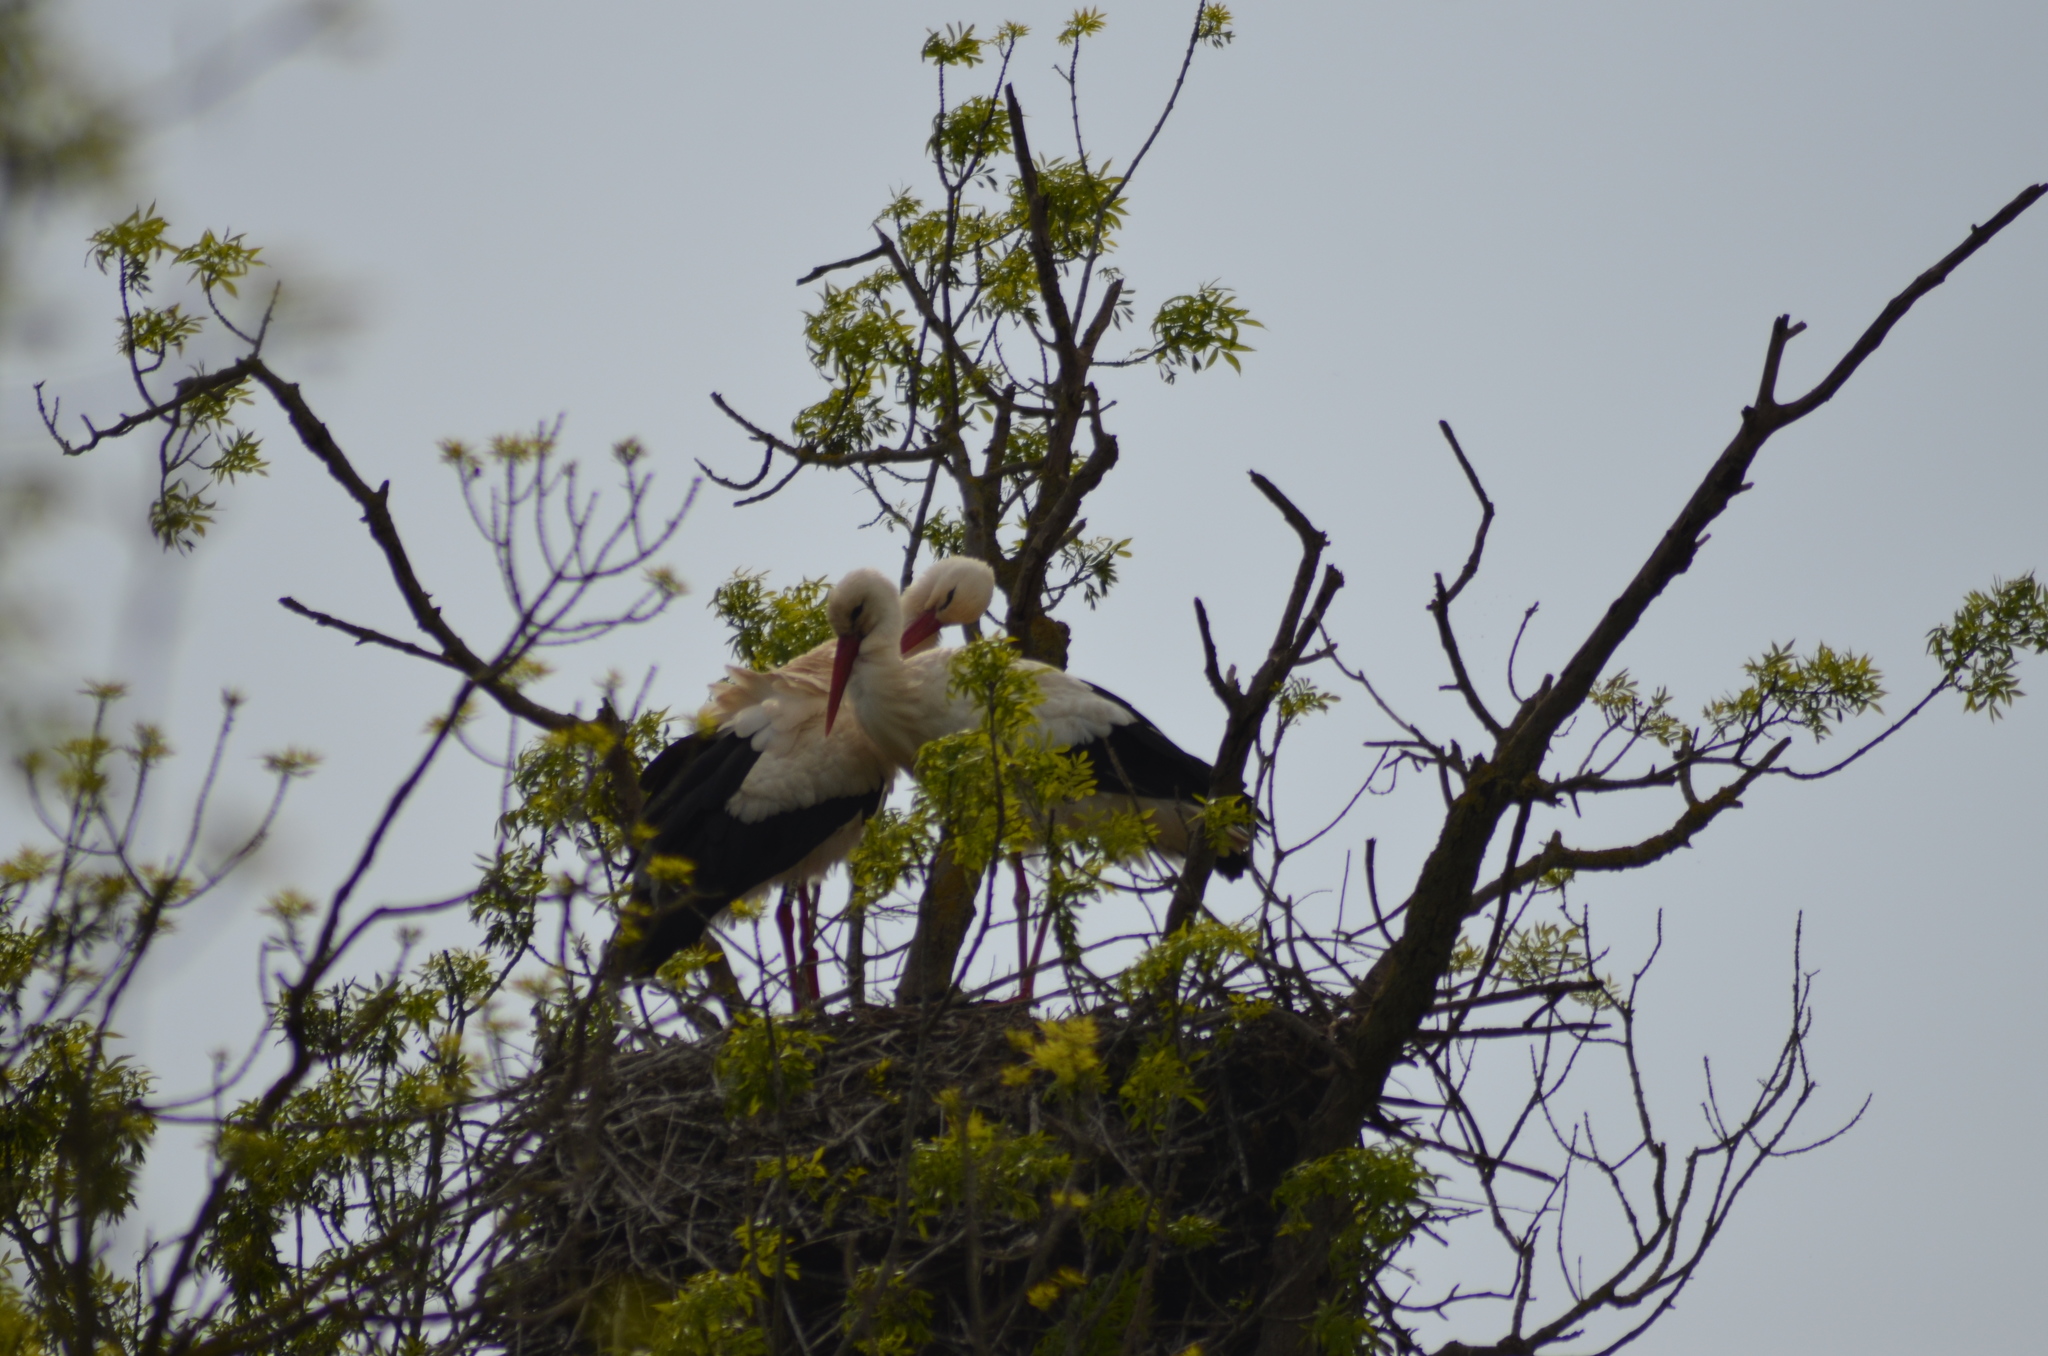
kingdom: Animalia
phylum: Chordata
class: Aves
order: Ciconiiformes
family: Ciconiidae
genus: Ciconia
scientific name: Ciconia ciconia
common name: White stork
